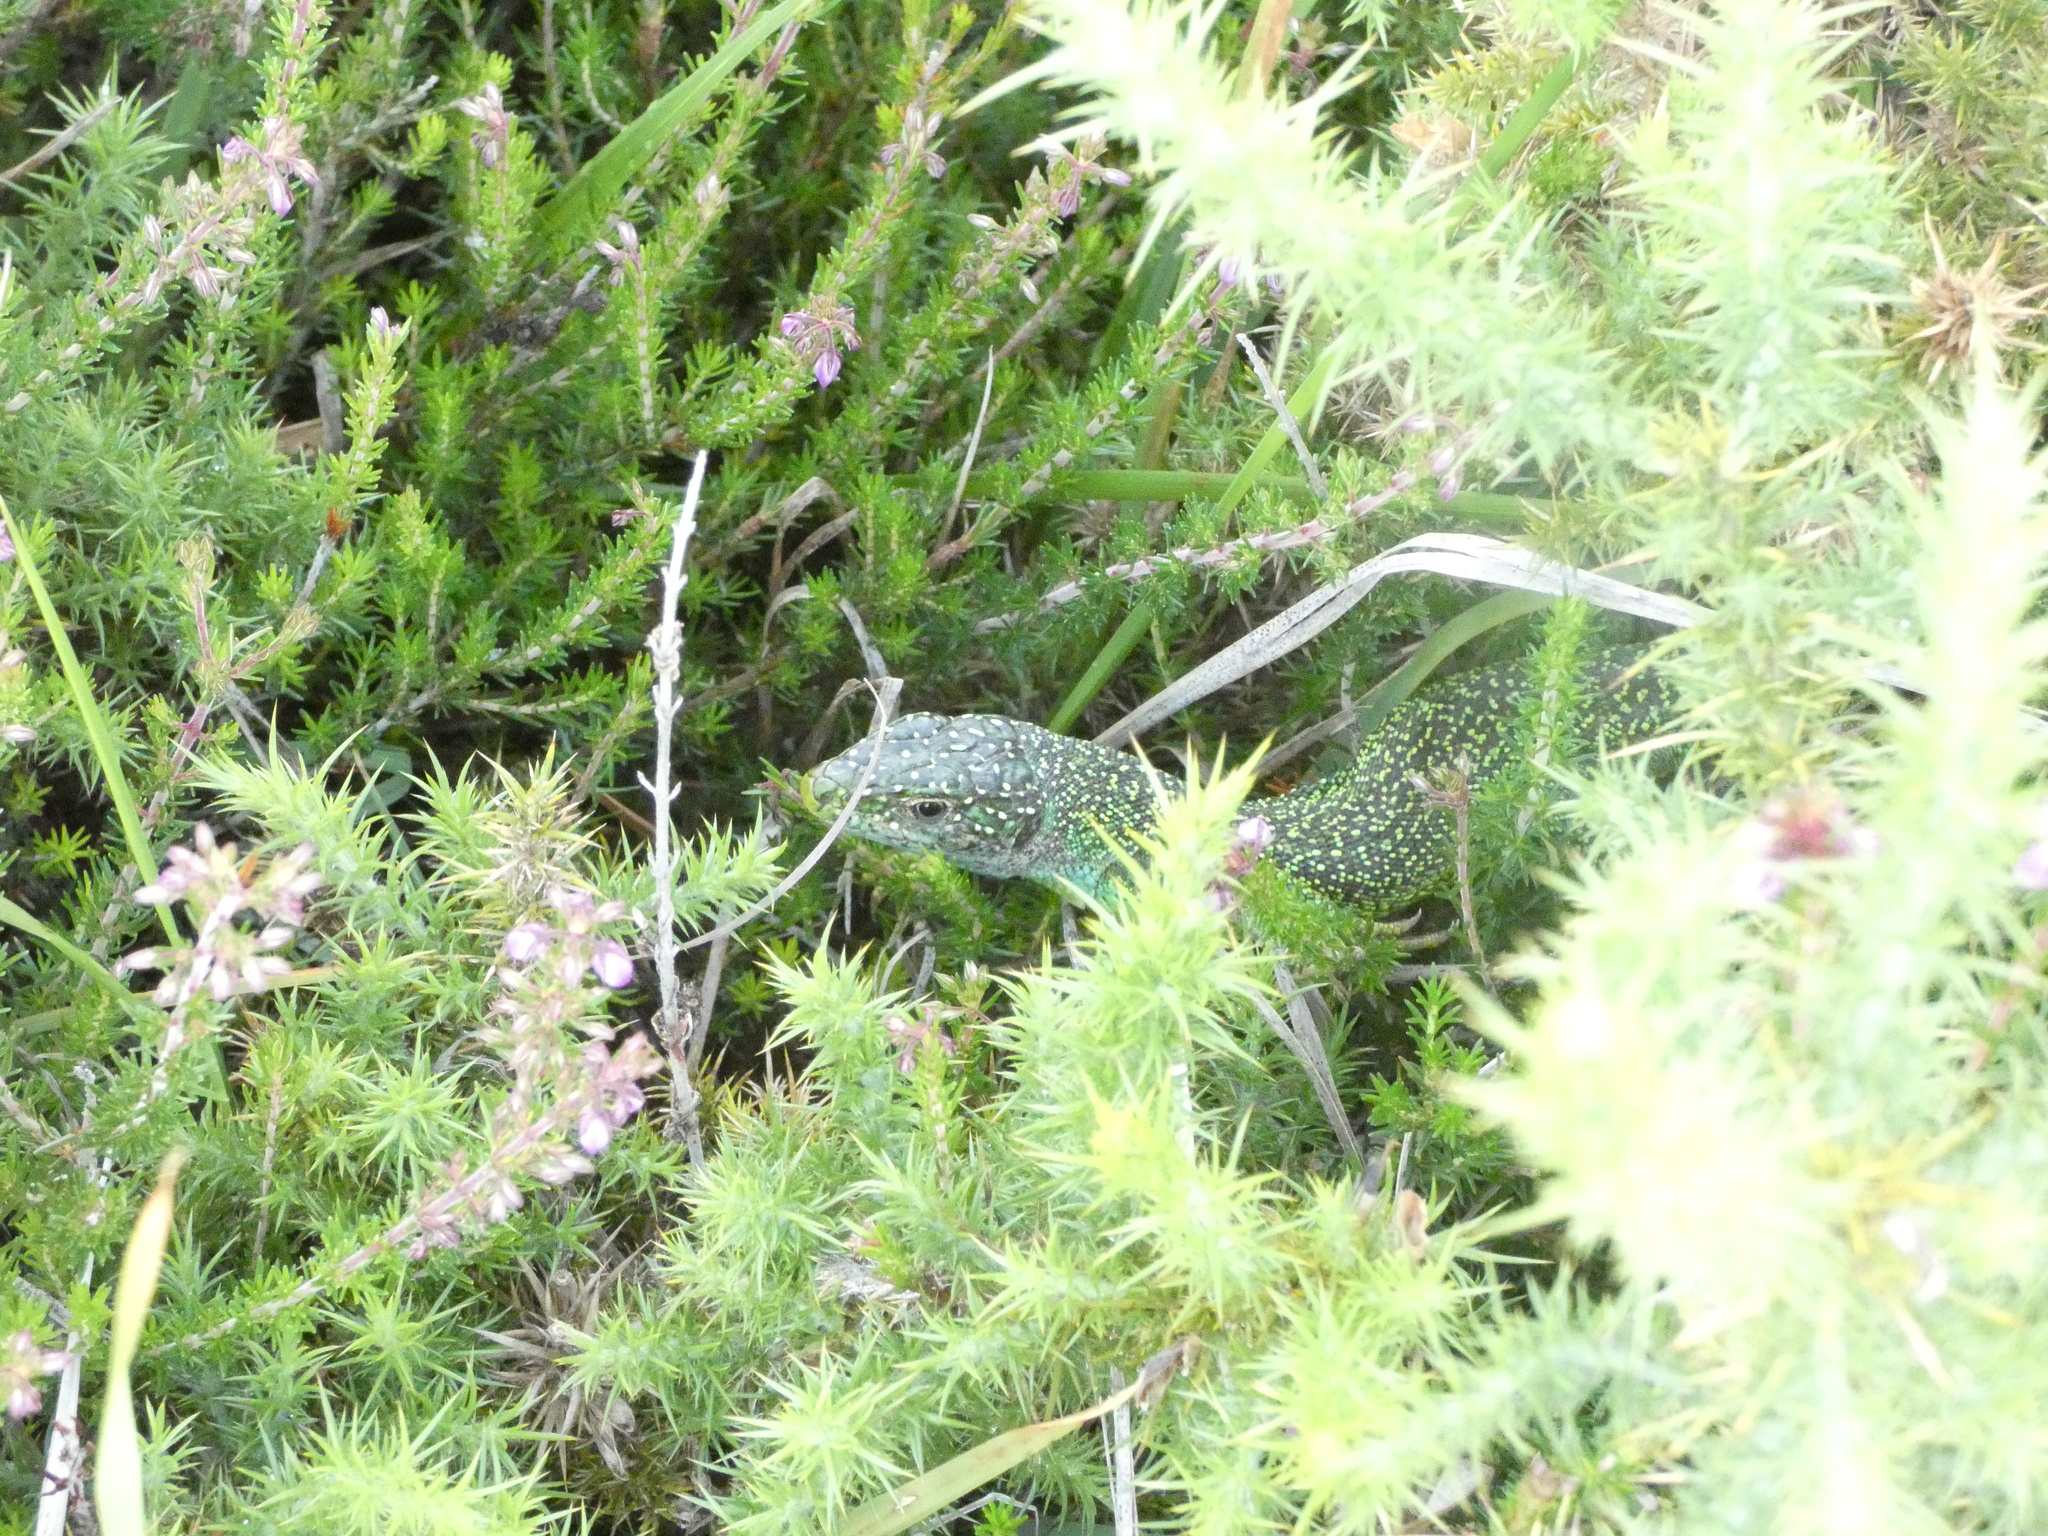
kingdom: Animalia
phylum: Chordata
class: Squamata
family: Lacertidae
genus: Lacerta
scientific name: Lacerta bilineata
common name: Western green lizard
